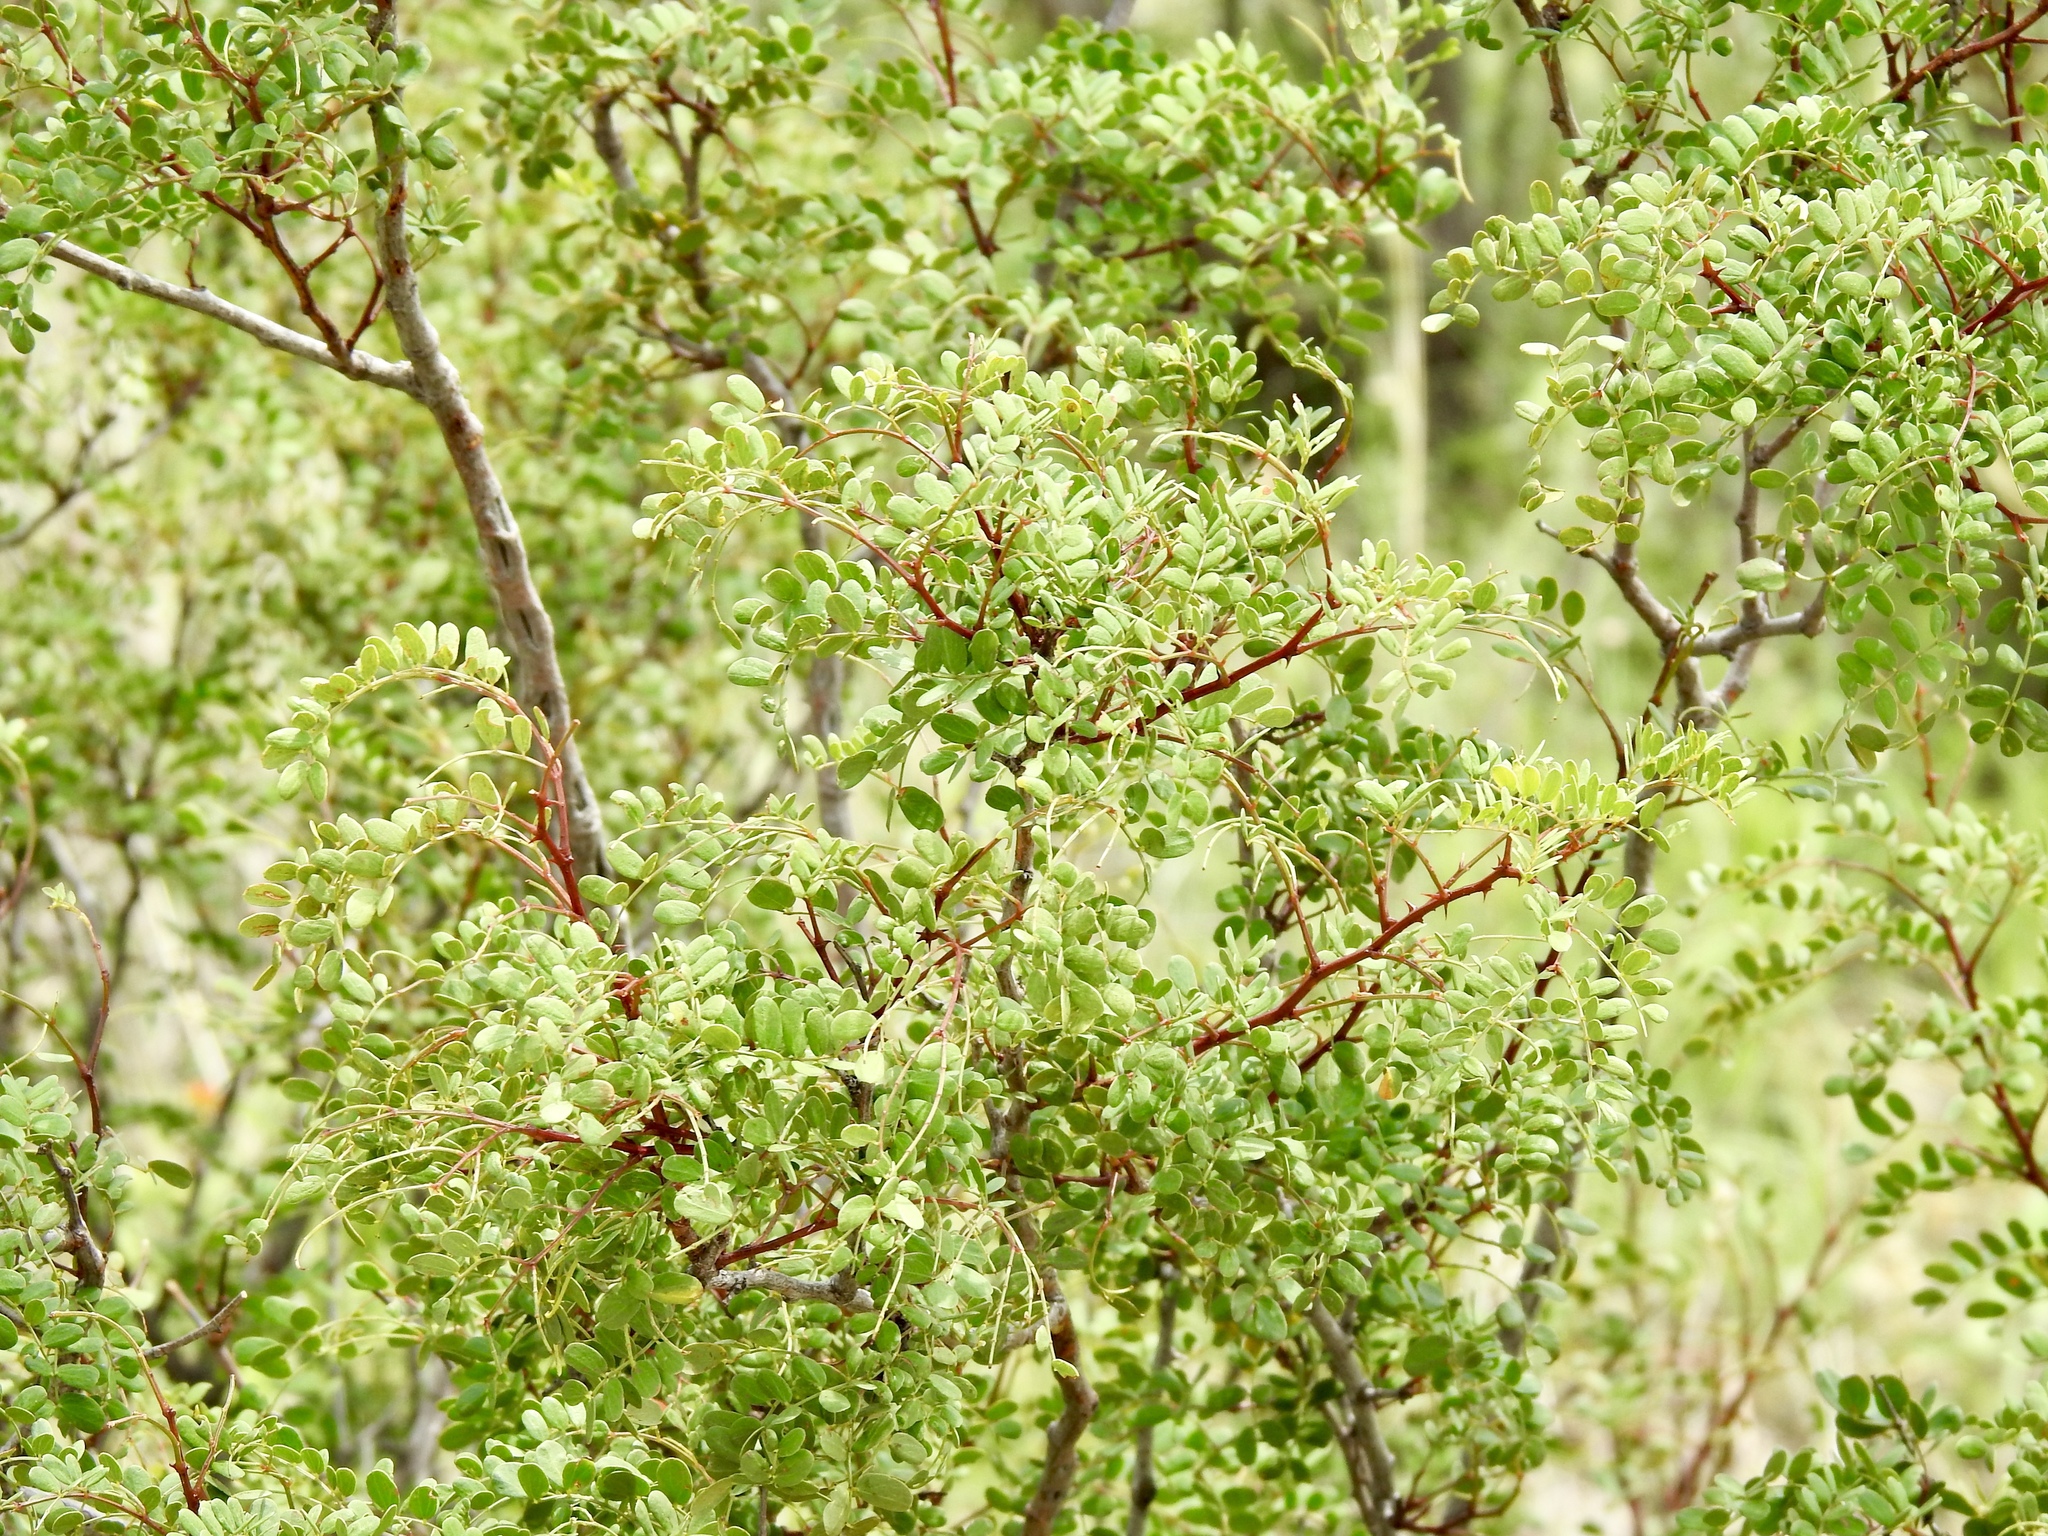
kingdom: Plantae
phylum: Tracheophyta
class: Magnoliopsida
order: Fabales
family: Fabaceae
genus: Senegalia
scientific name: Senegalia roemeriana
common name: Roemer's acacia
